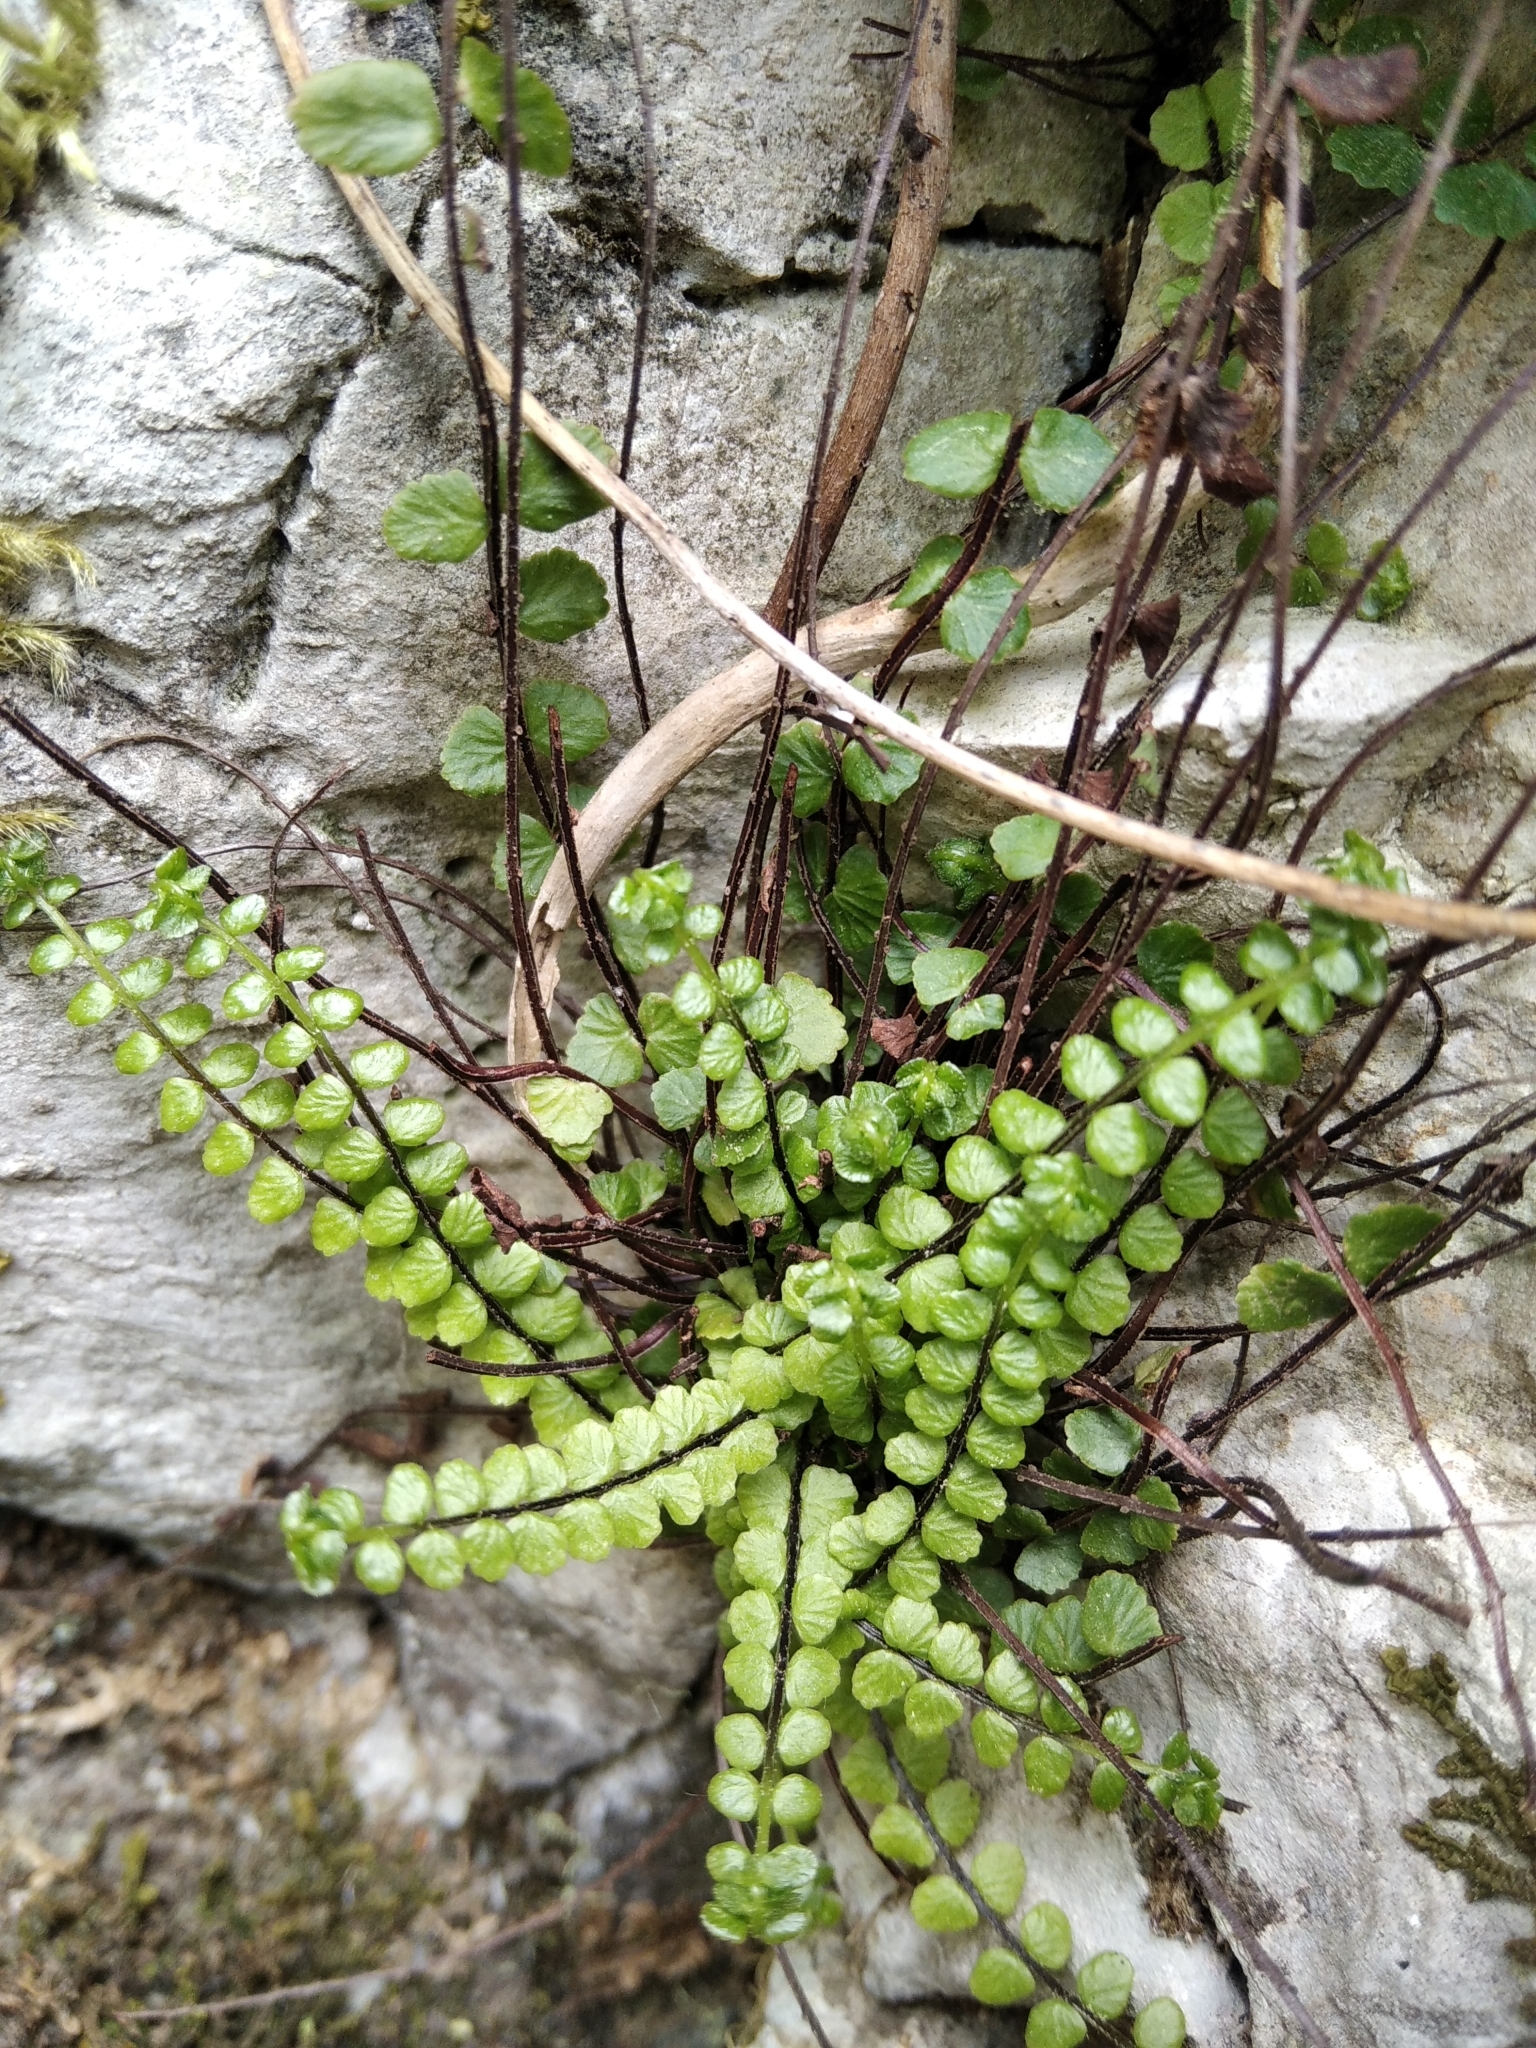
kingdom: Plantae
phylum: Tracheophyta
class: Polypodiopsida
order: Polypodiales
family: Aspleniaceae
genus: Asplenium
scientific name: Asplenium trichomanes
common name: Maidenhair spleenwort
